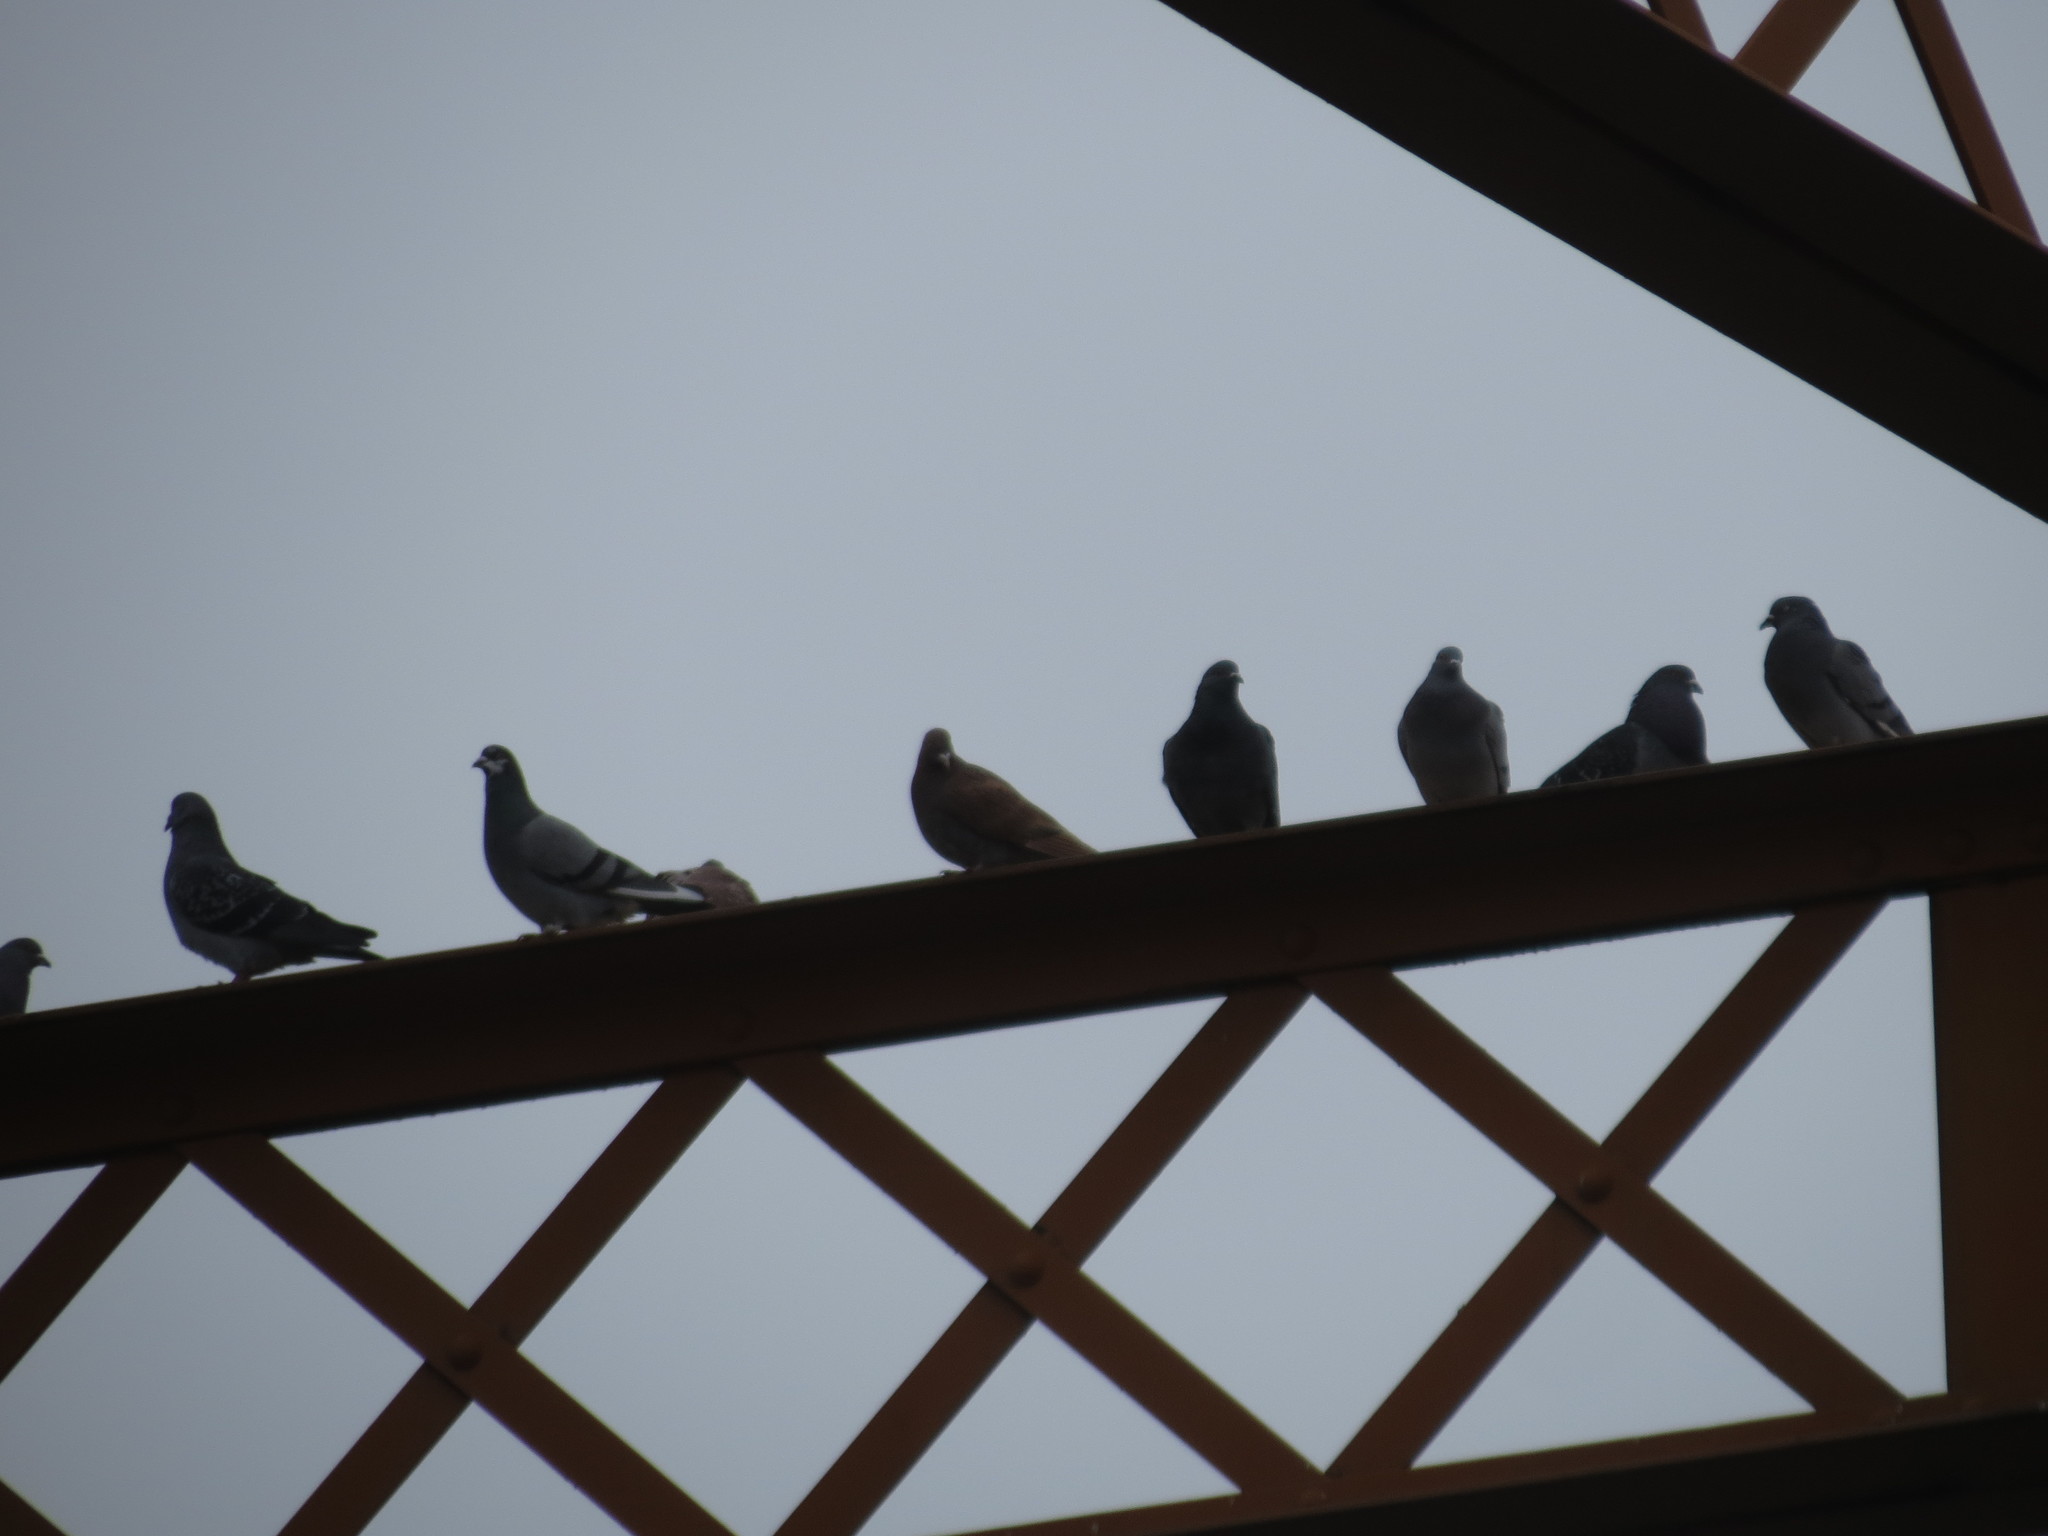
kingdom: Animalia
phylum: Chordata
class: Aves
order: Columbiformes
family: Columbidae
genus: Columba
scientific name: Columba livia
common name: Rock pigeon
